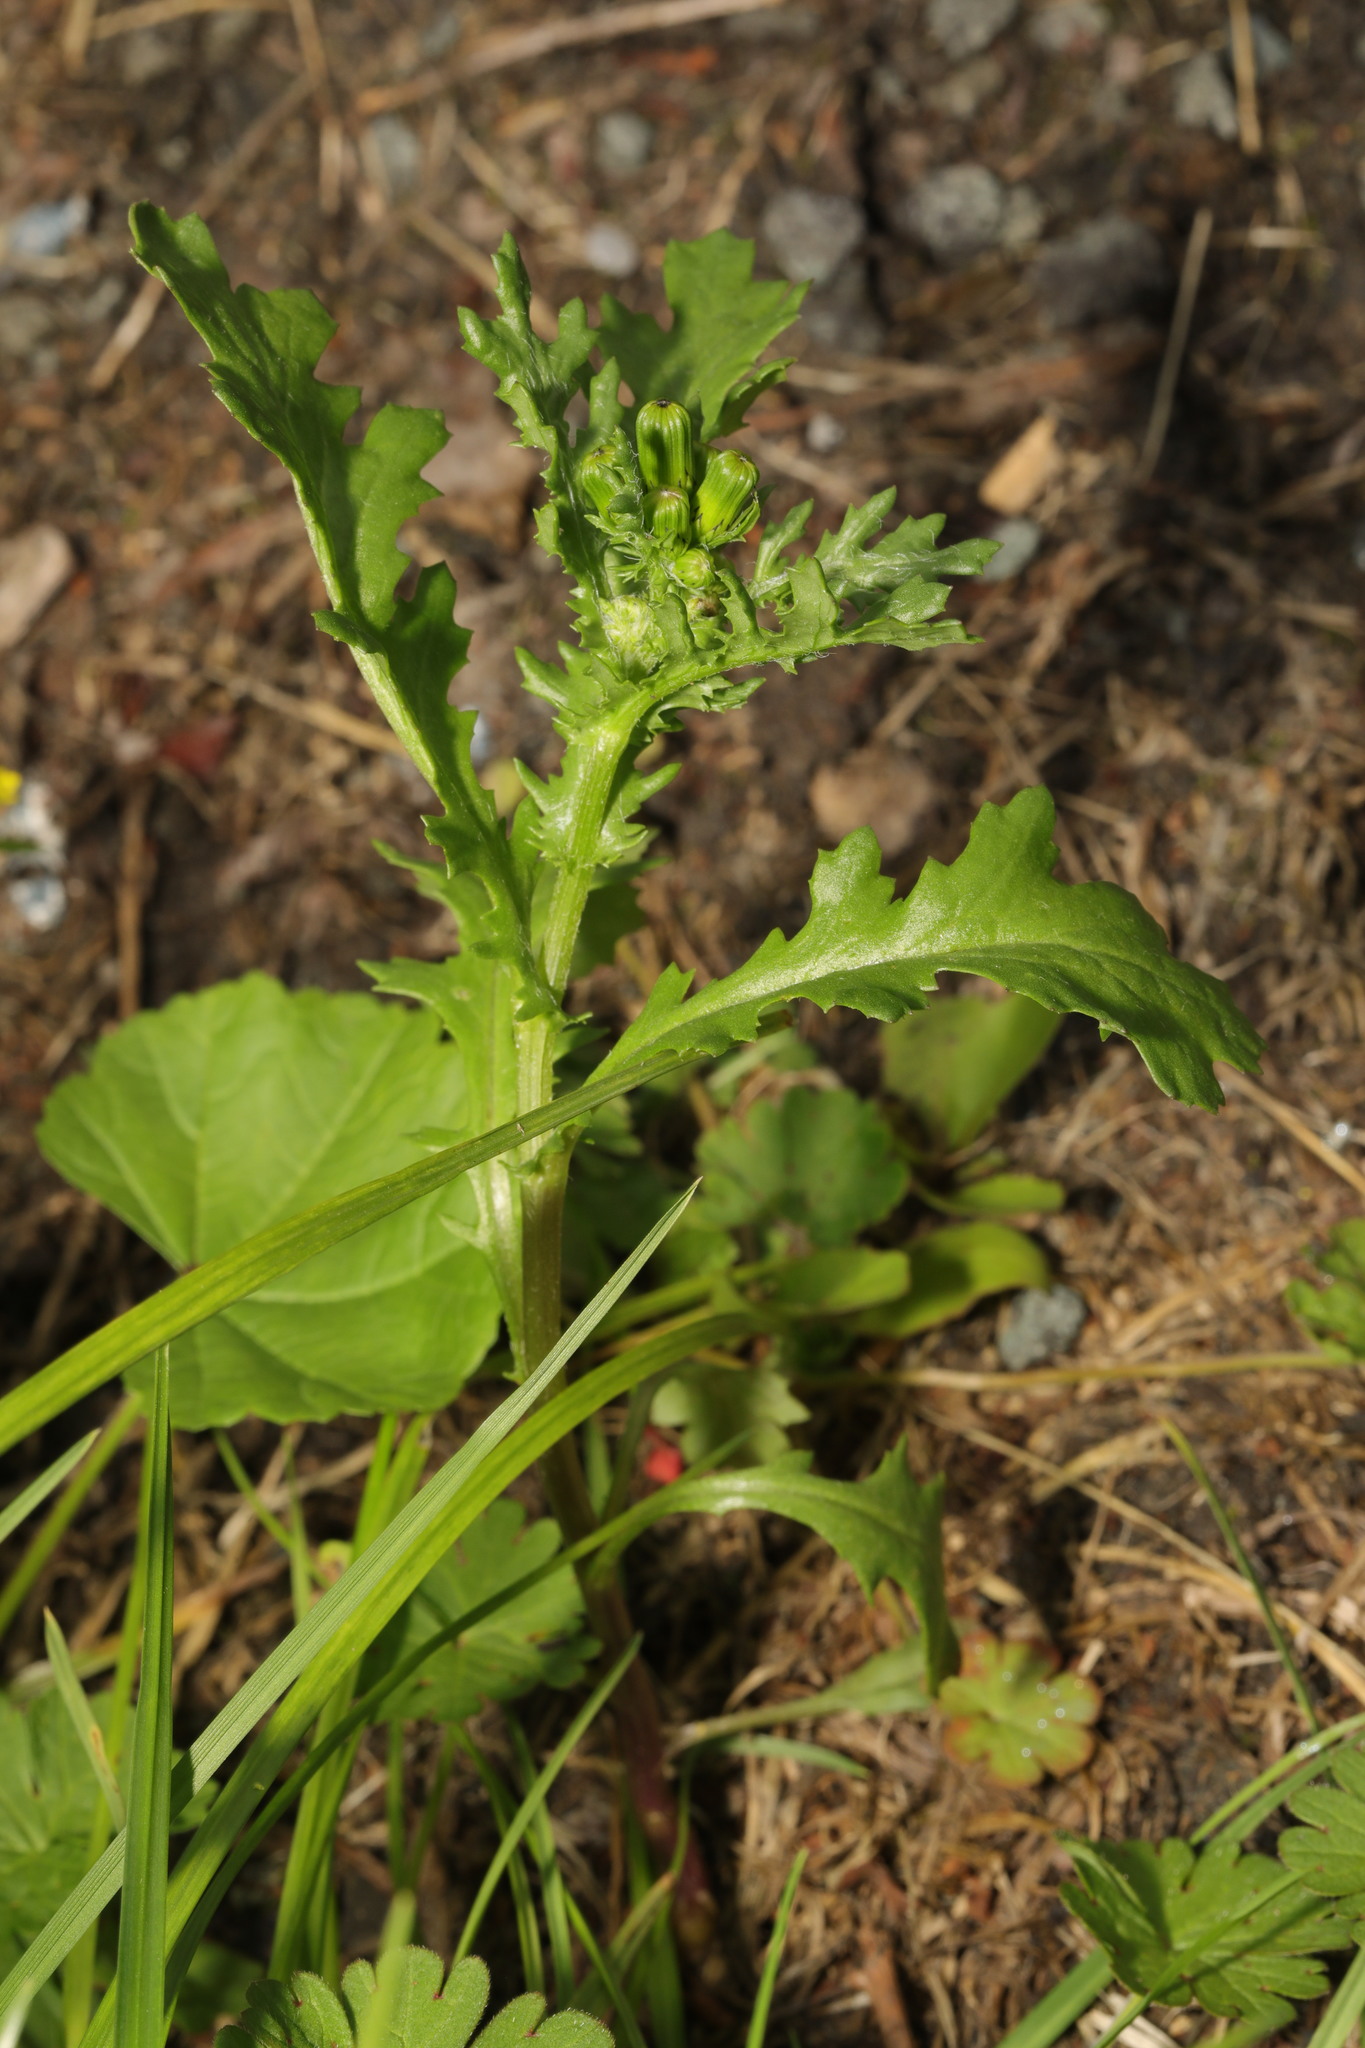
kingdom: Plantae
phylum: Tracheophyta
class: Magnoliopsida
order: Asterales
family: Asteraceae
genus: Senecio
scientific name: Senecio vulgaris
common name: Old-man-in-the-spring
